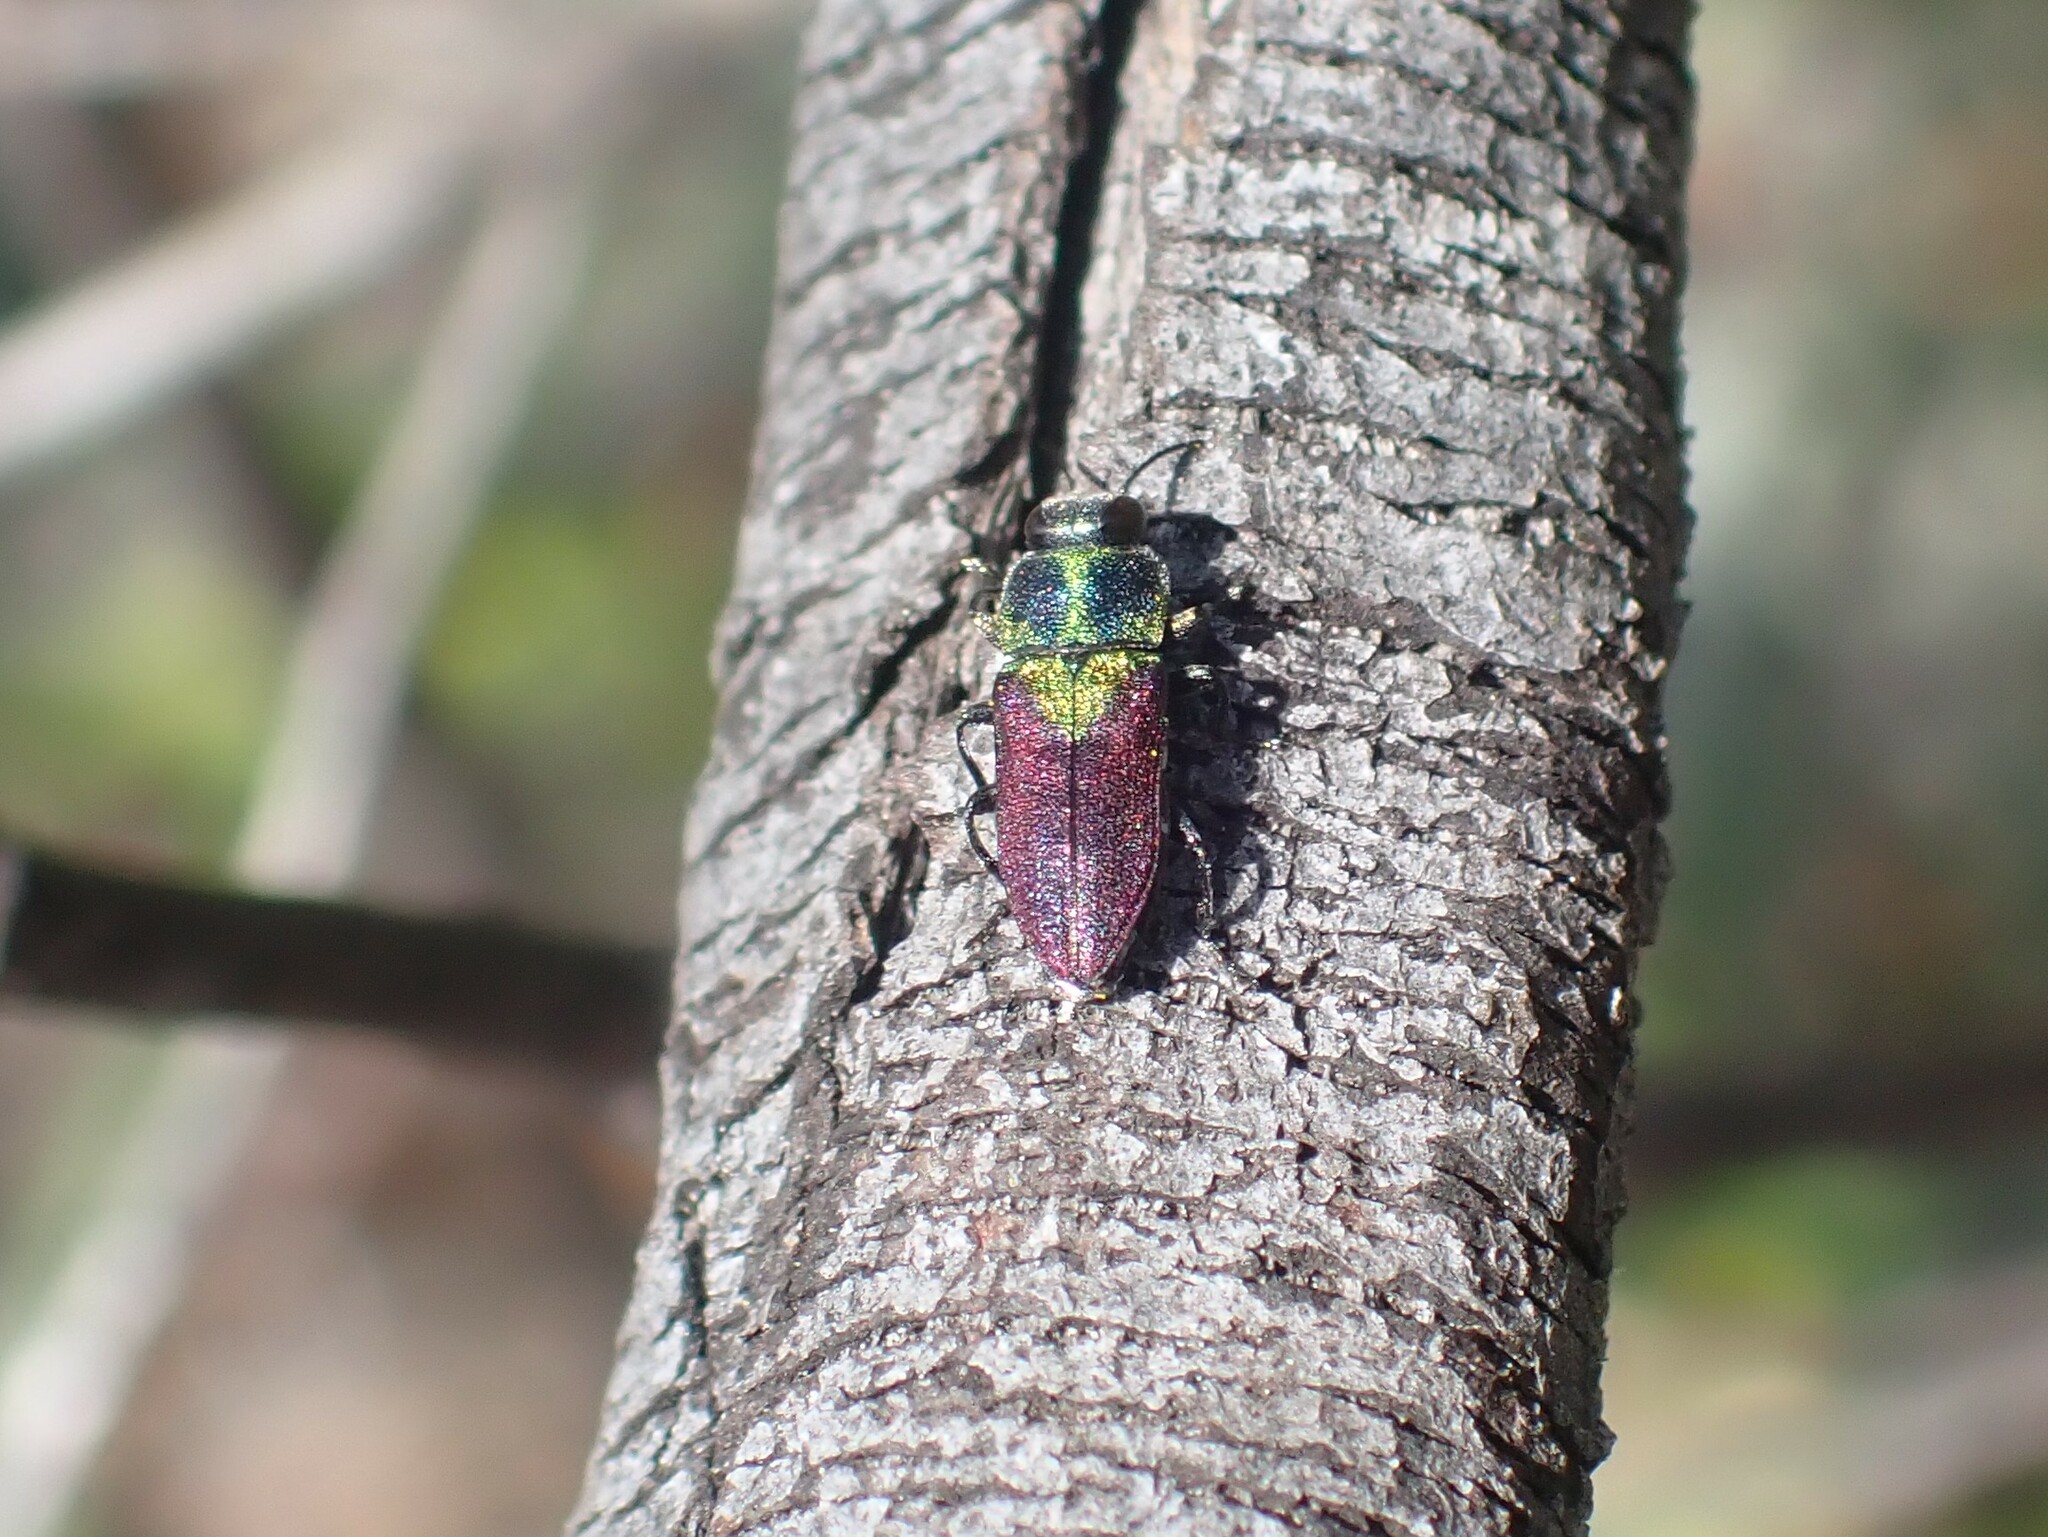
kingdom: Animalia
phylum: Arthropoda
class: Insecta
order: Coleoptera
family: Buprestidae
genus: Anthaxia
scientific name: Anthaxia salicis
